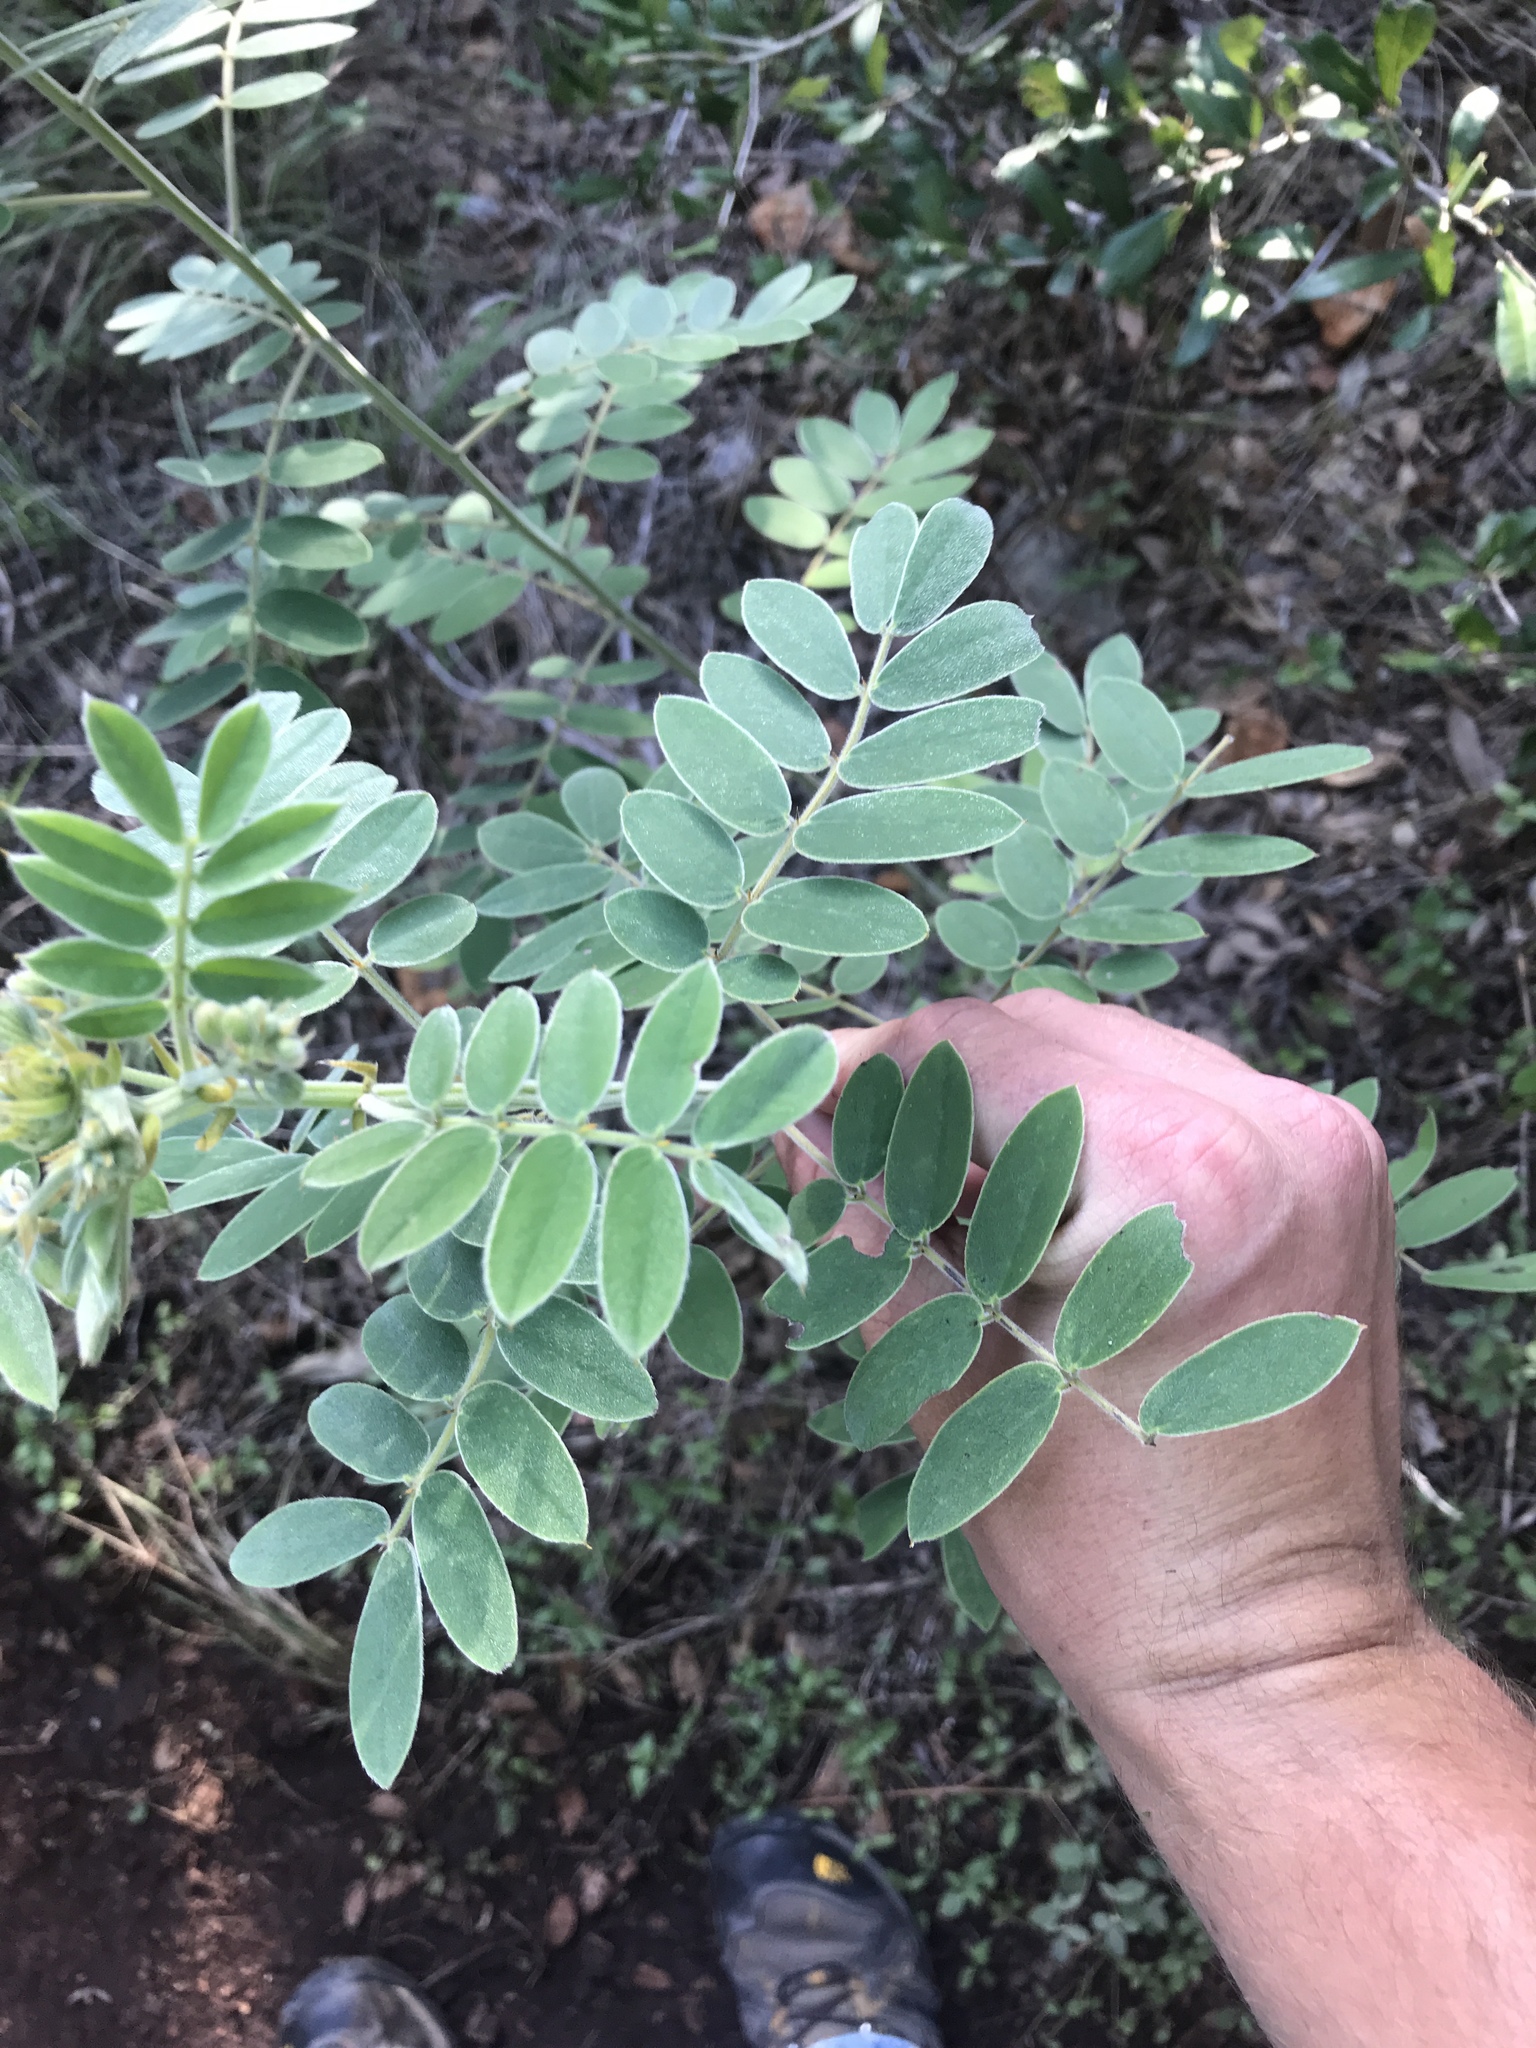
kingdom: Plantae
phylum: Tracheophyta
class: Magnoliopsida
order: Fabales
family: Fabaceae
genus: Senna
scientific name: Senna lindheimeriana
